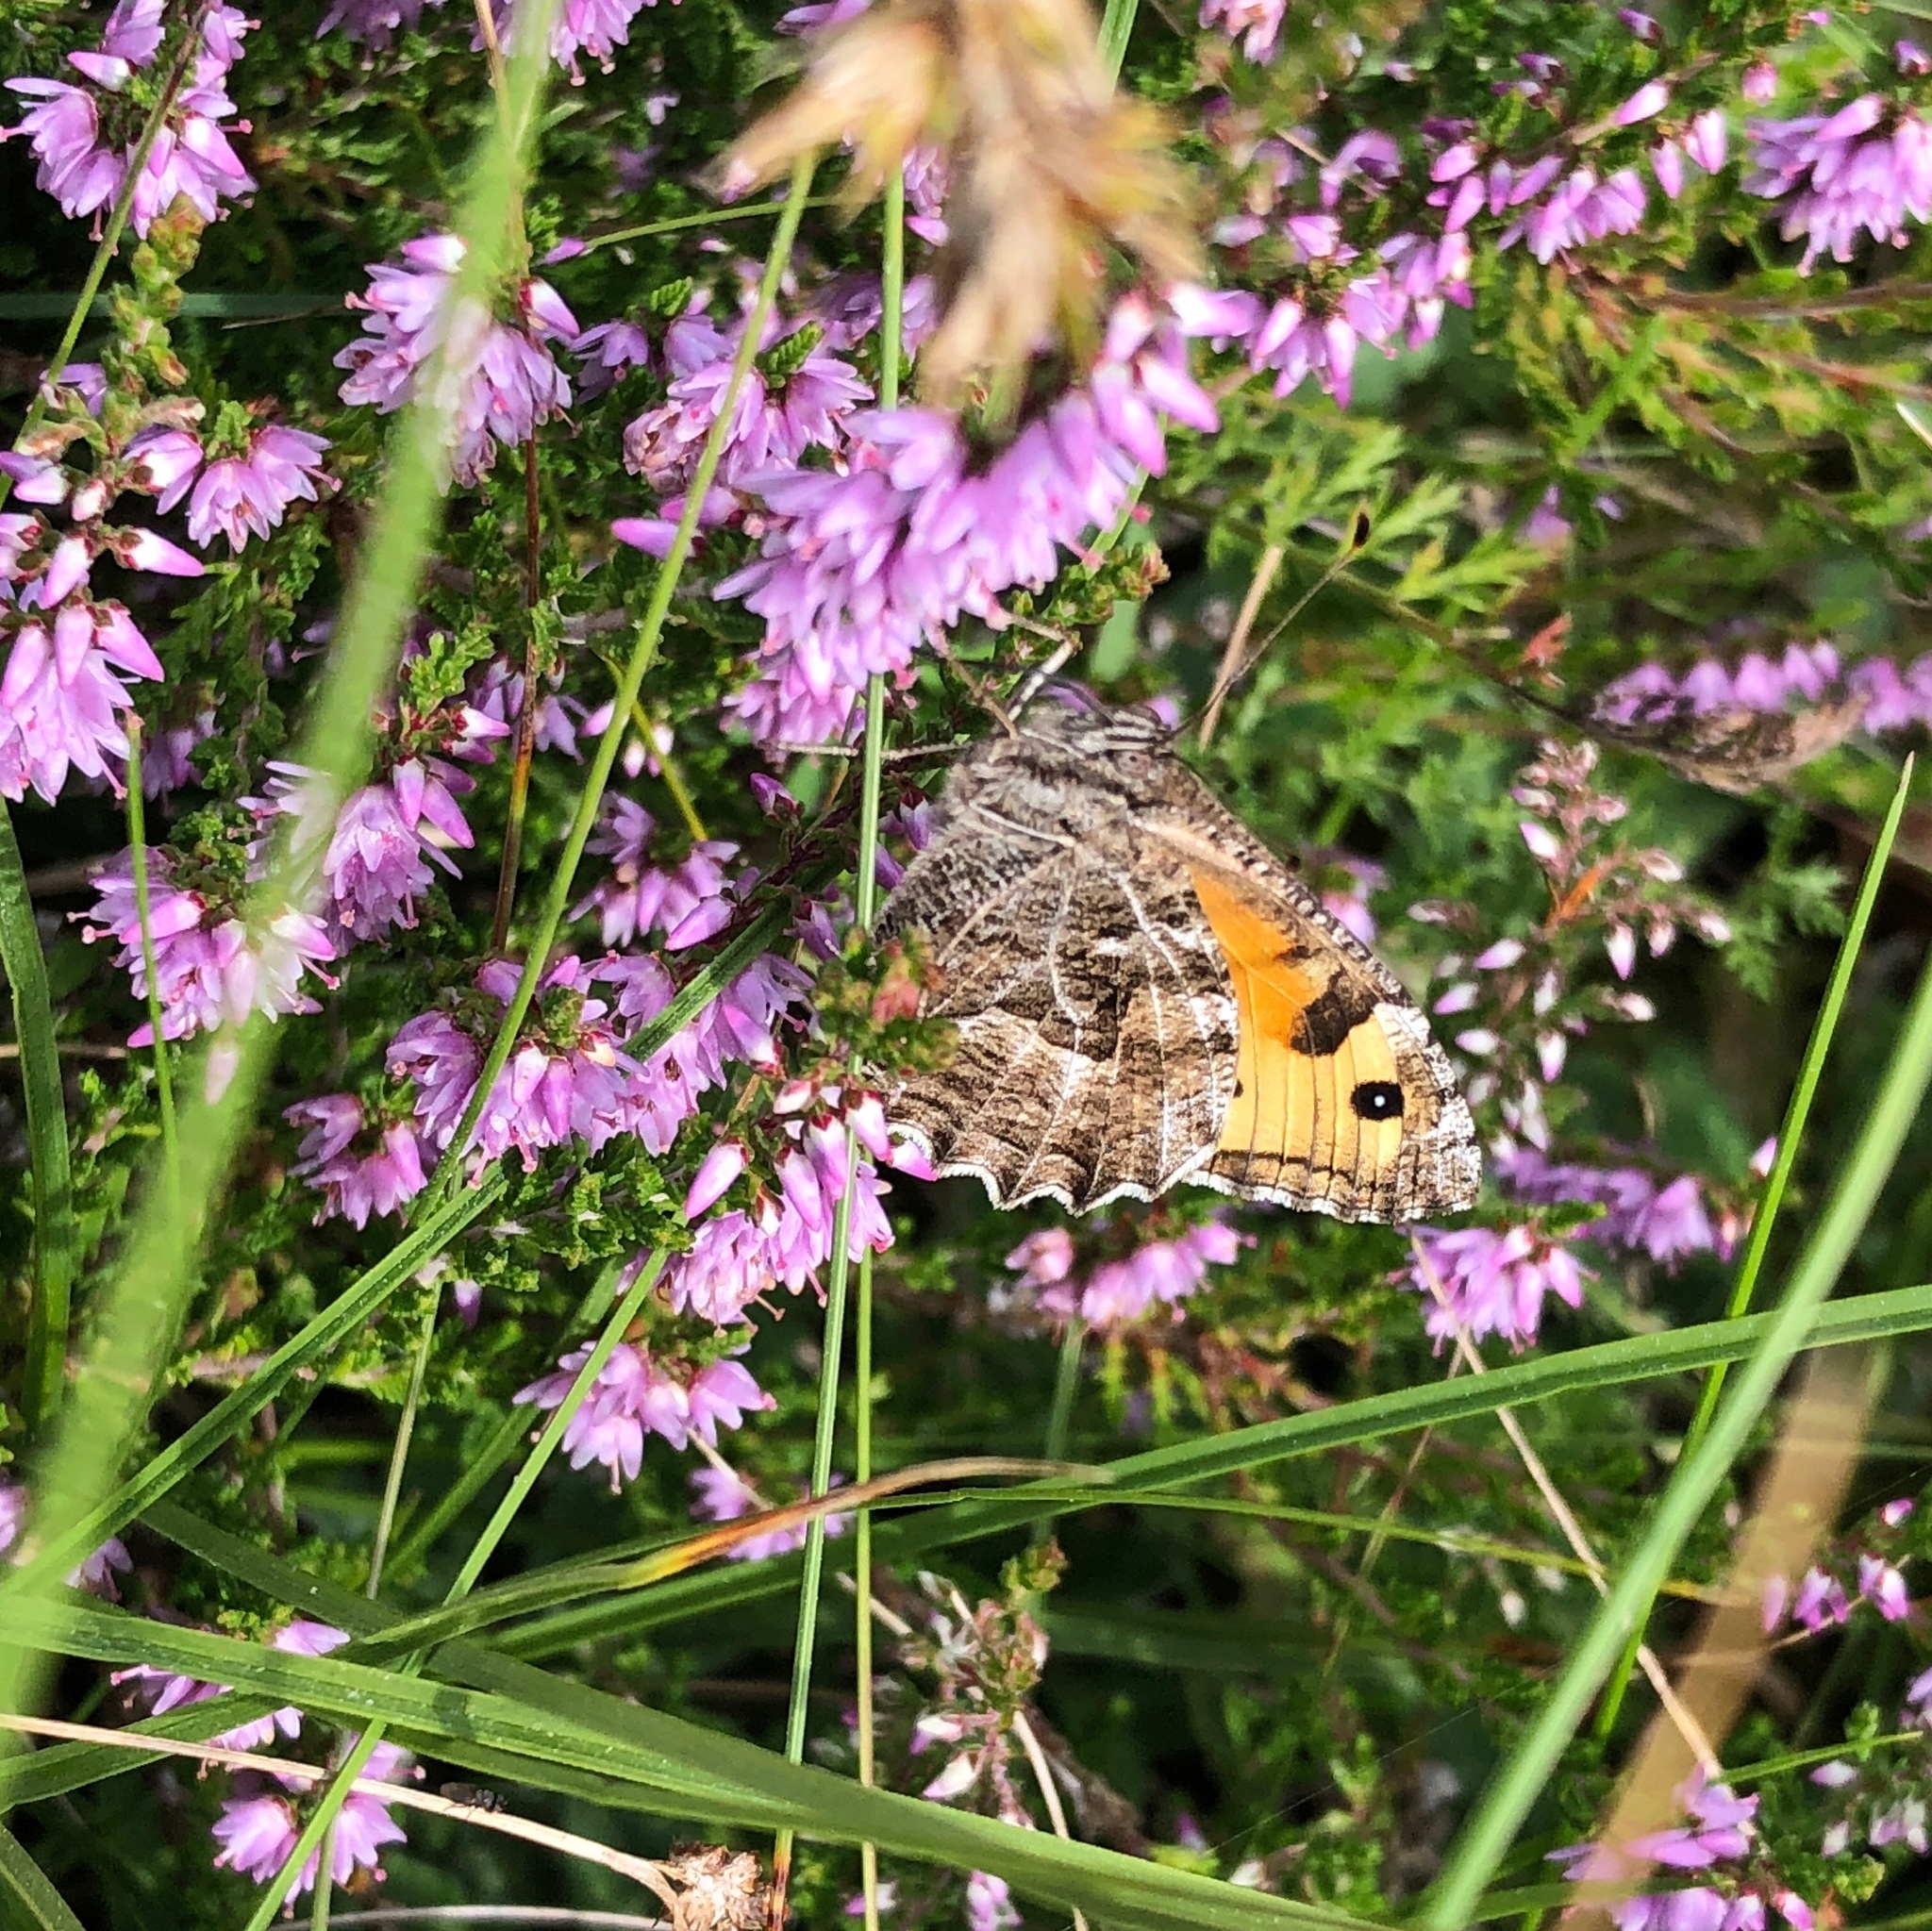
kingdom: Animalia
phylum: Arthropoda
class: Insecta
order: Lepidoptera
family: Nymphalidae
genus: Hipparchia
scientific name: Hipparchia semele
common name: Grayling
